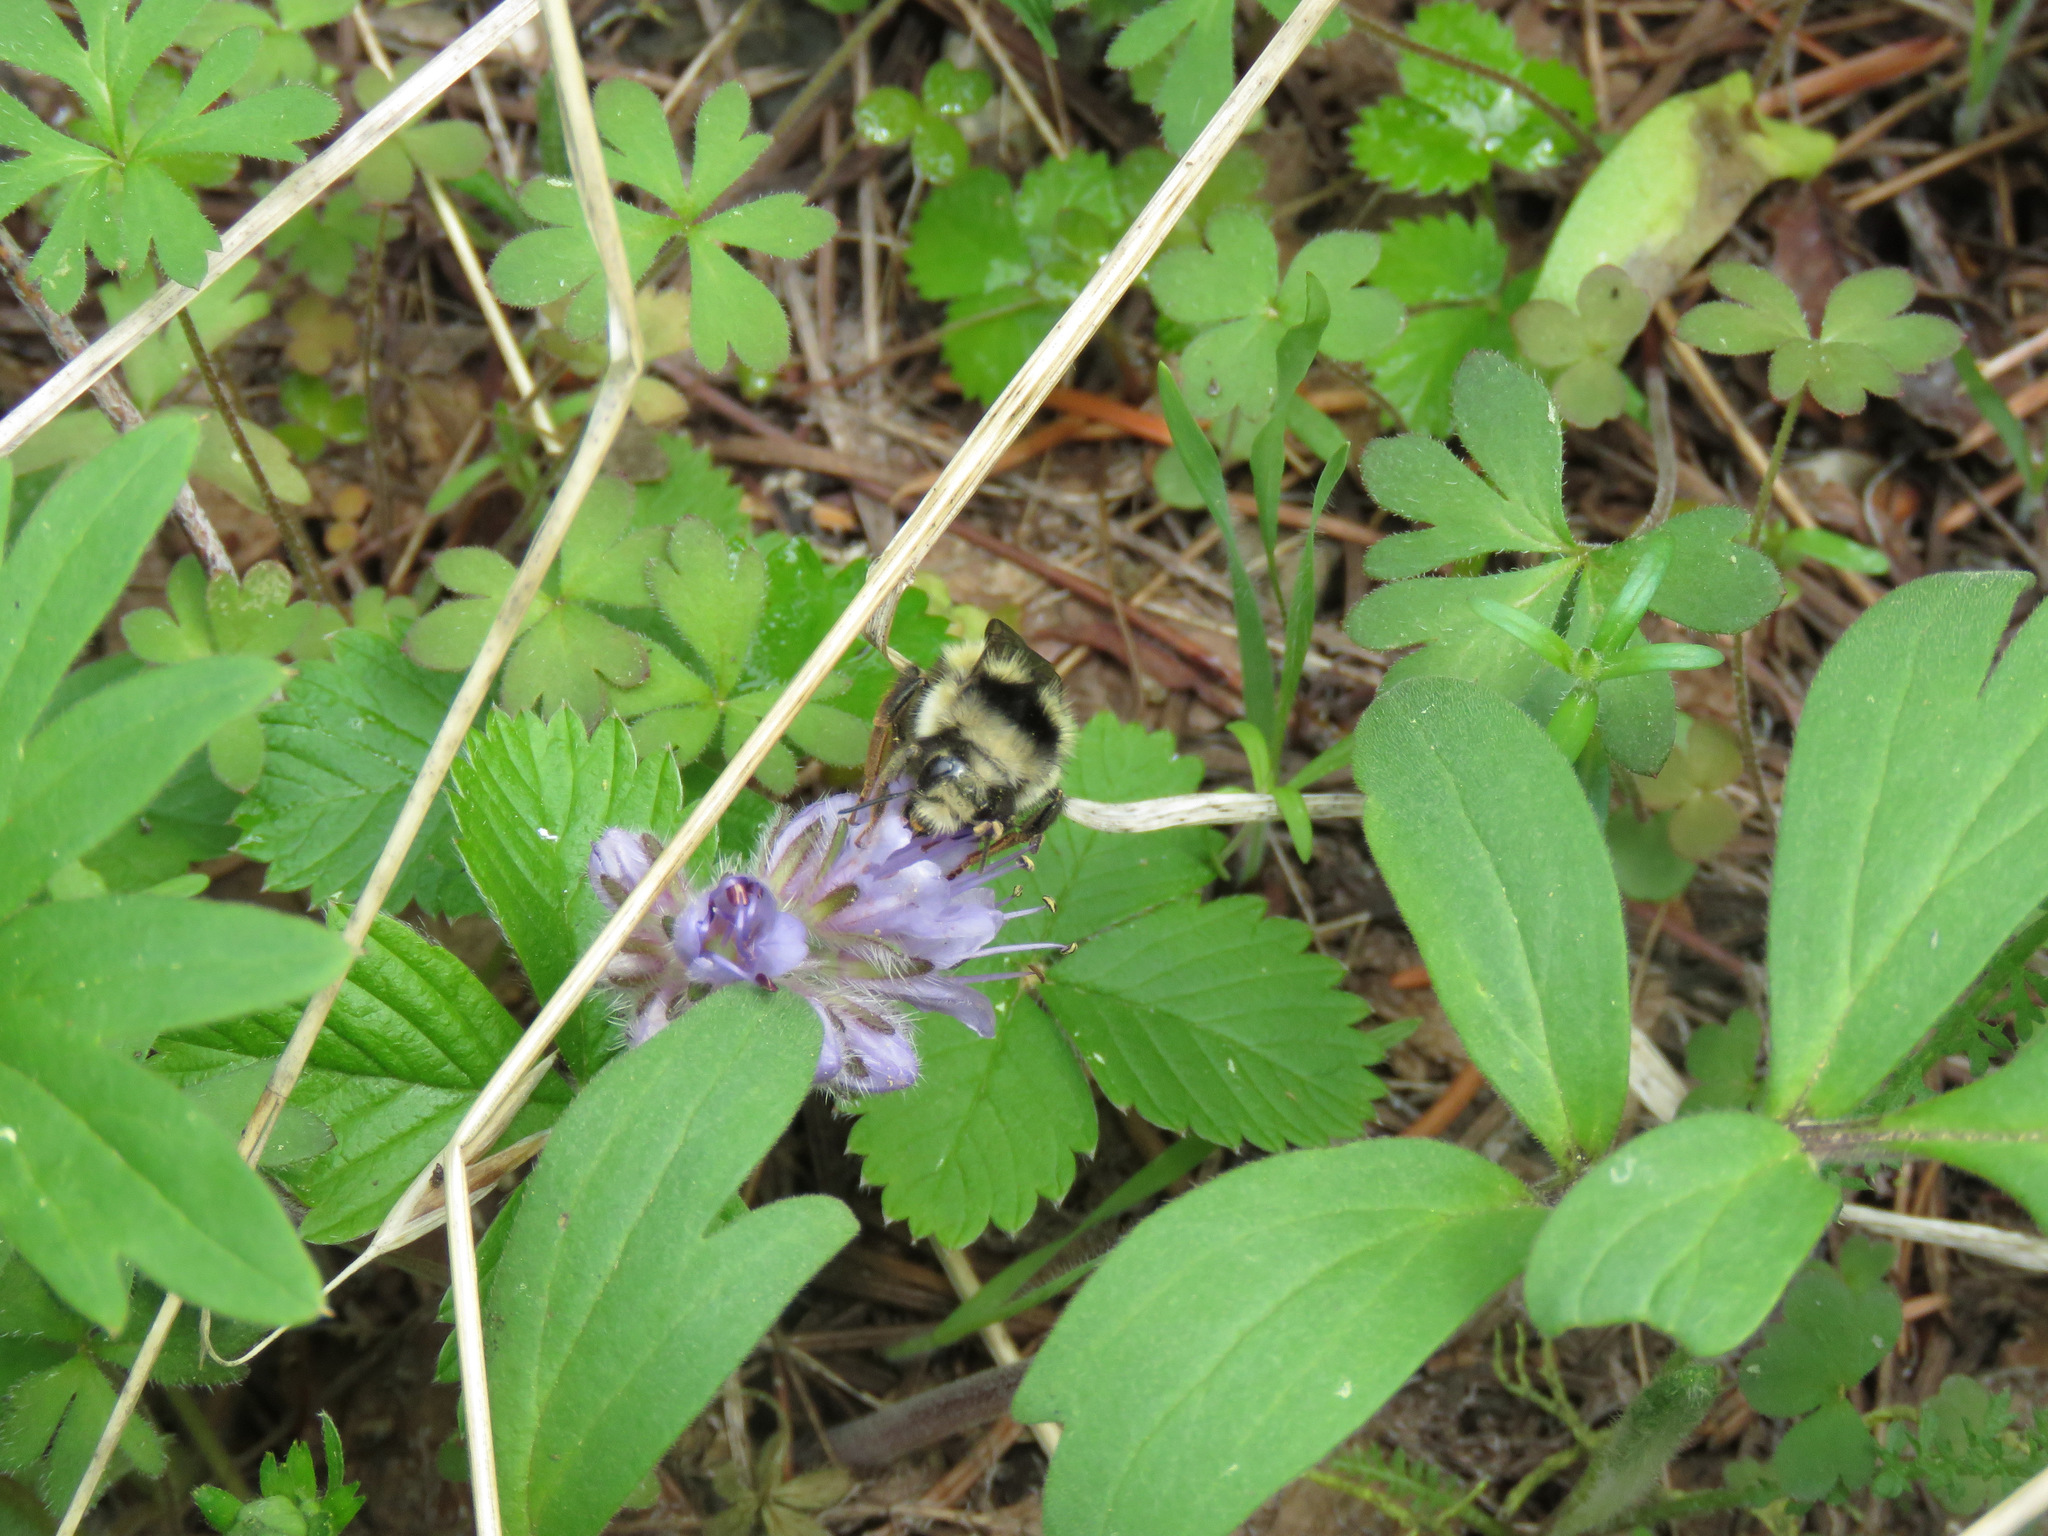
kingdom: Animalia
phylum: Arthropoda
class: Insecta
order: Hymenoptera
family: Apidae
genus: Bombus
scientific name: Bombus vancouverensis
